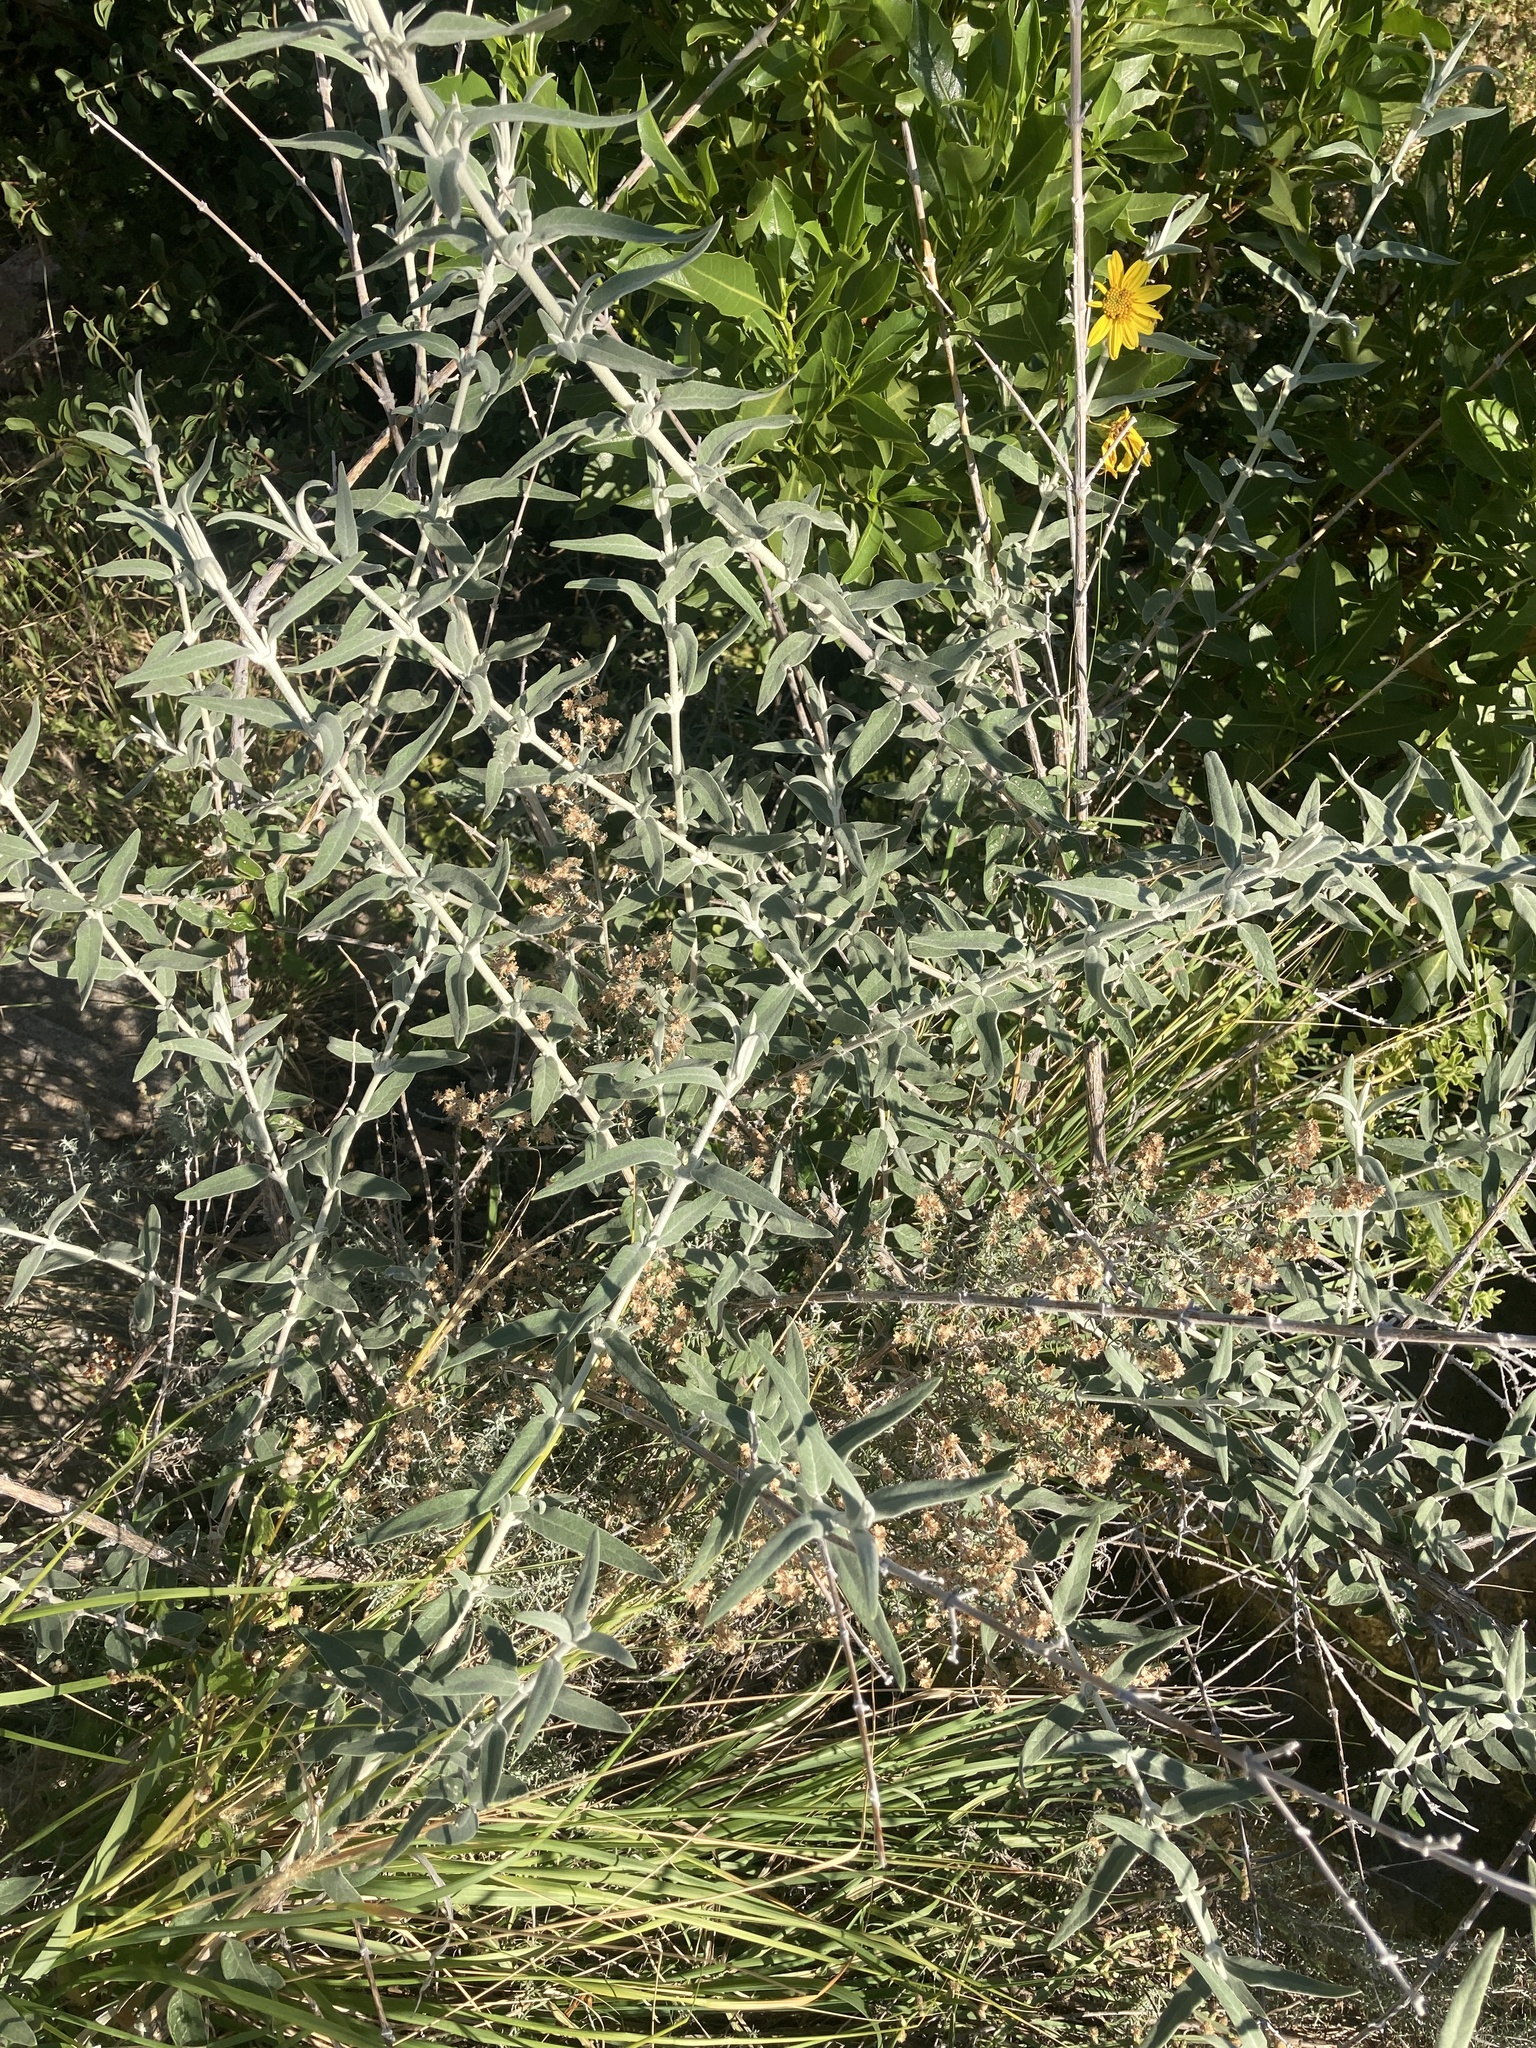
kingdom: Plantae
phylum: Tracheophyta
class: Magnoliopsida
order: Lamiales
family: Scrophulariaceae
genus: Buddleja
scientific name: Buddleja cordobensis
